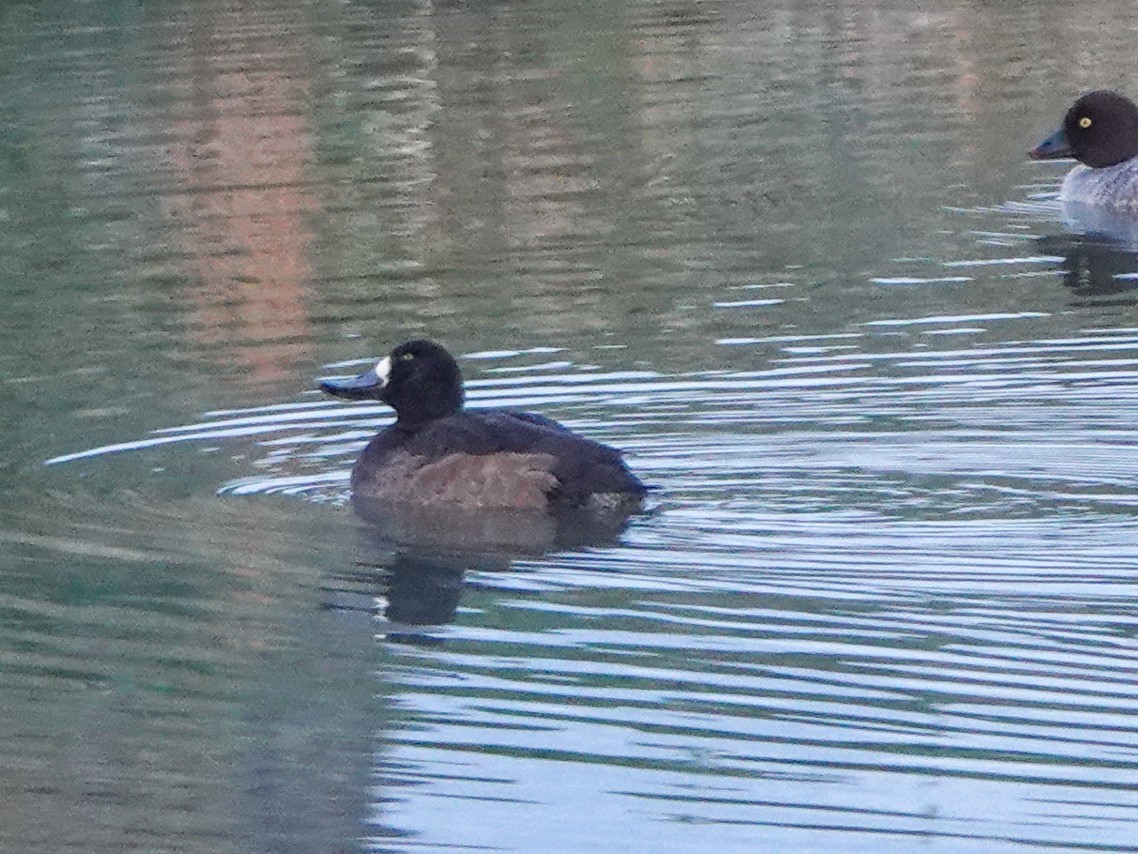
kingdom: Animalia
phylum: Chordata
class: Aves
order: Anseriformes
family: Anatidae
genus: Aythya
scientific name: Aythya marila
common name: Greater scaup
